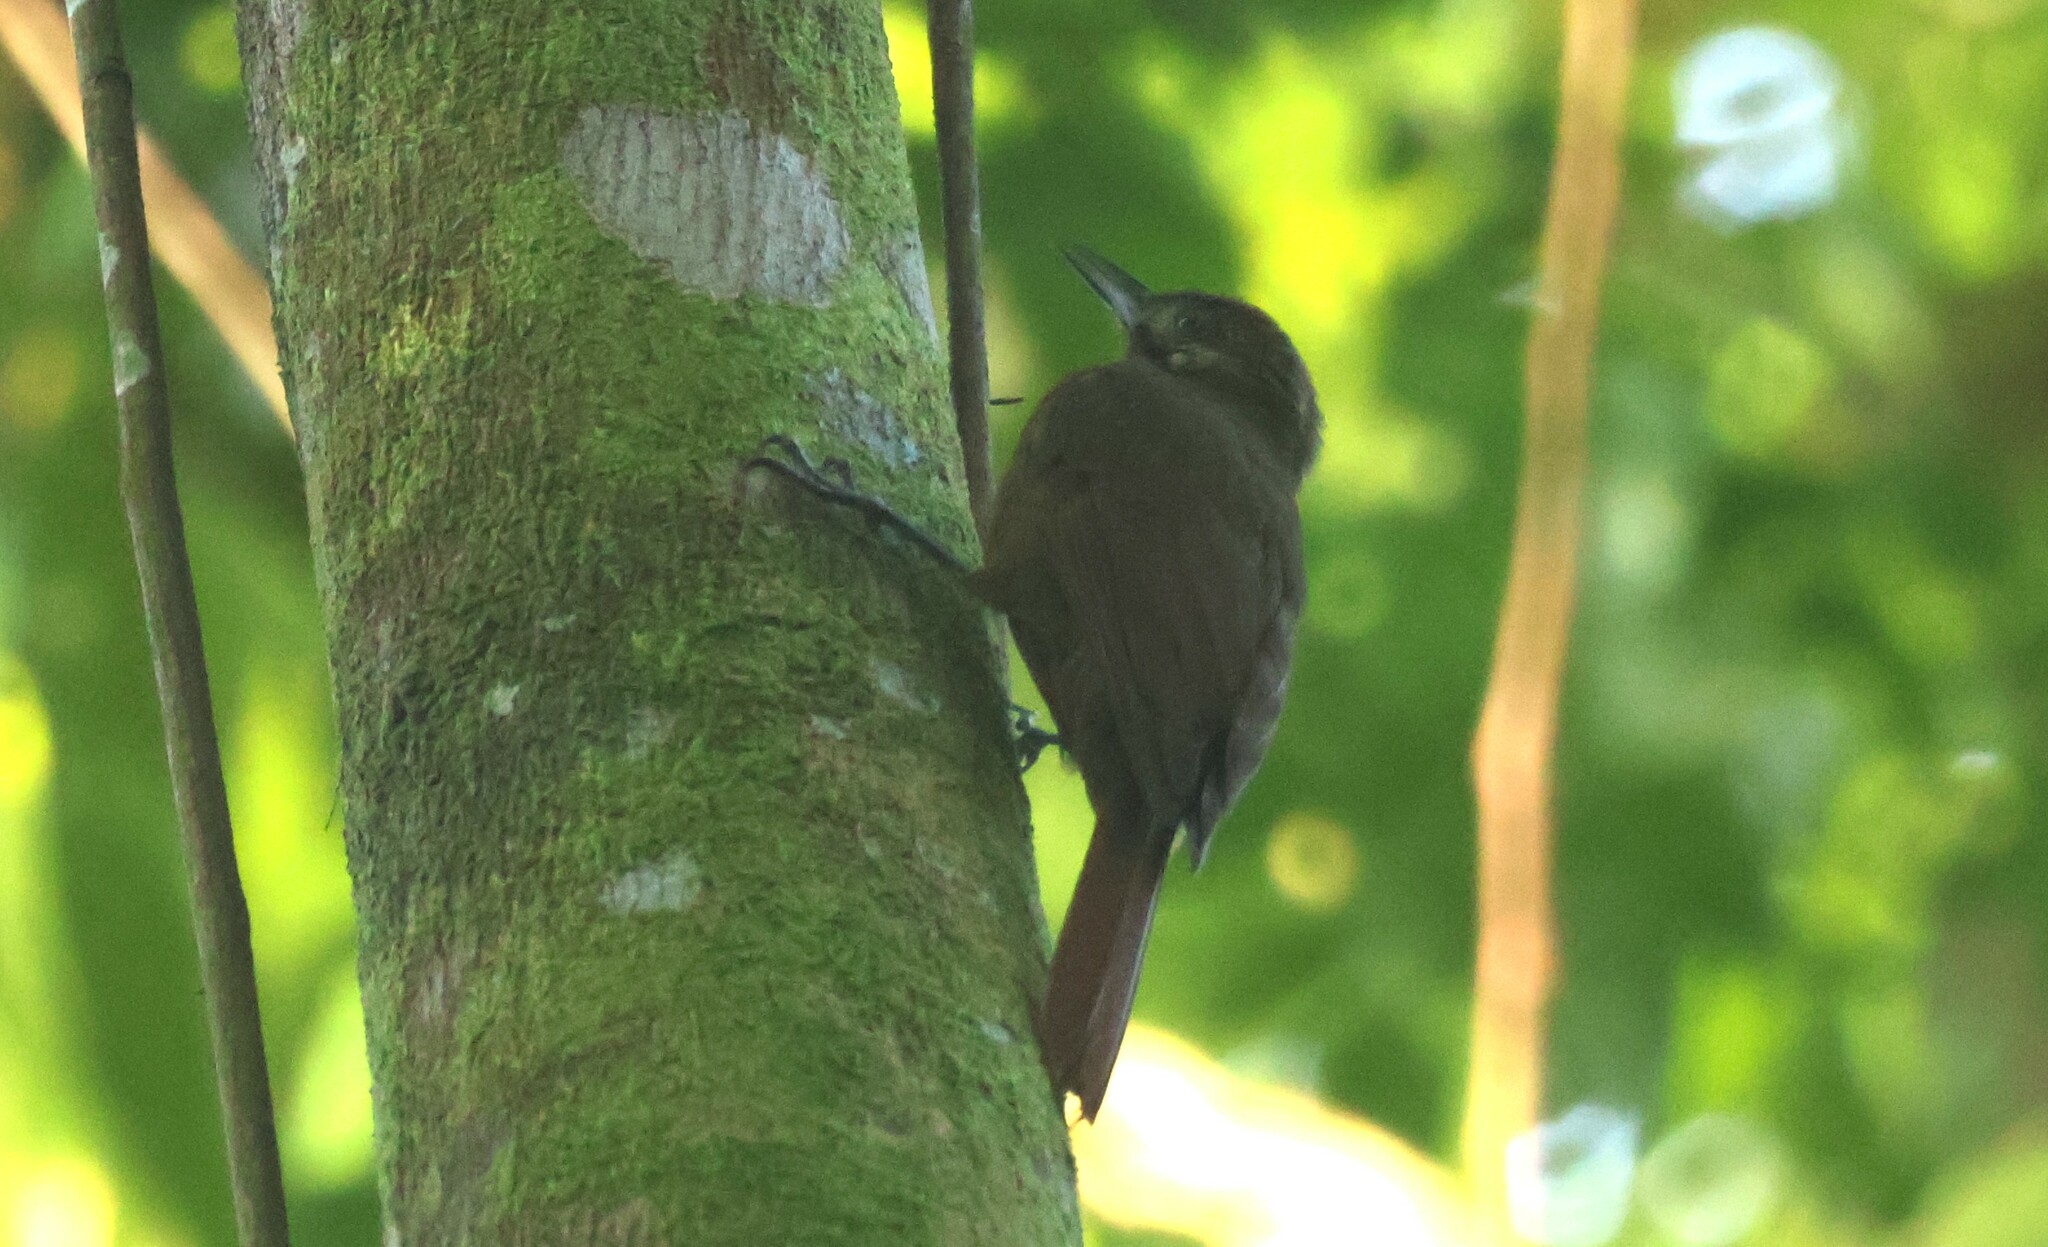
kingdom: Animalia
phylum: Chordata
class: Aves
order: Passeriformes
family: Furnariidae
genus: Dendrocincla
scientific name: Dendrocincla fuliginosa
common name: Plain-brown woodcreeper
